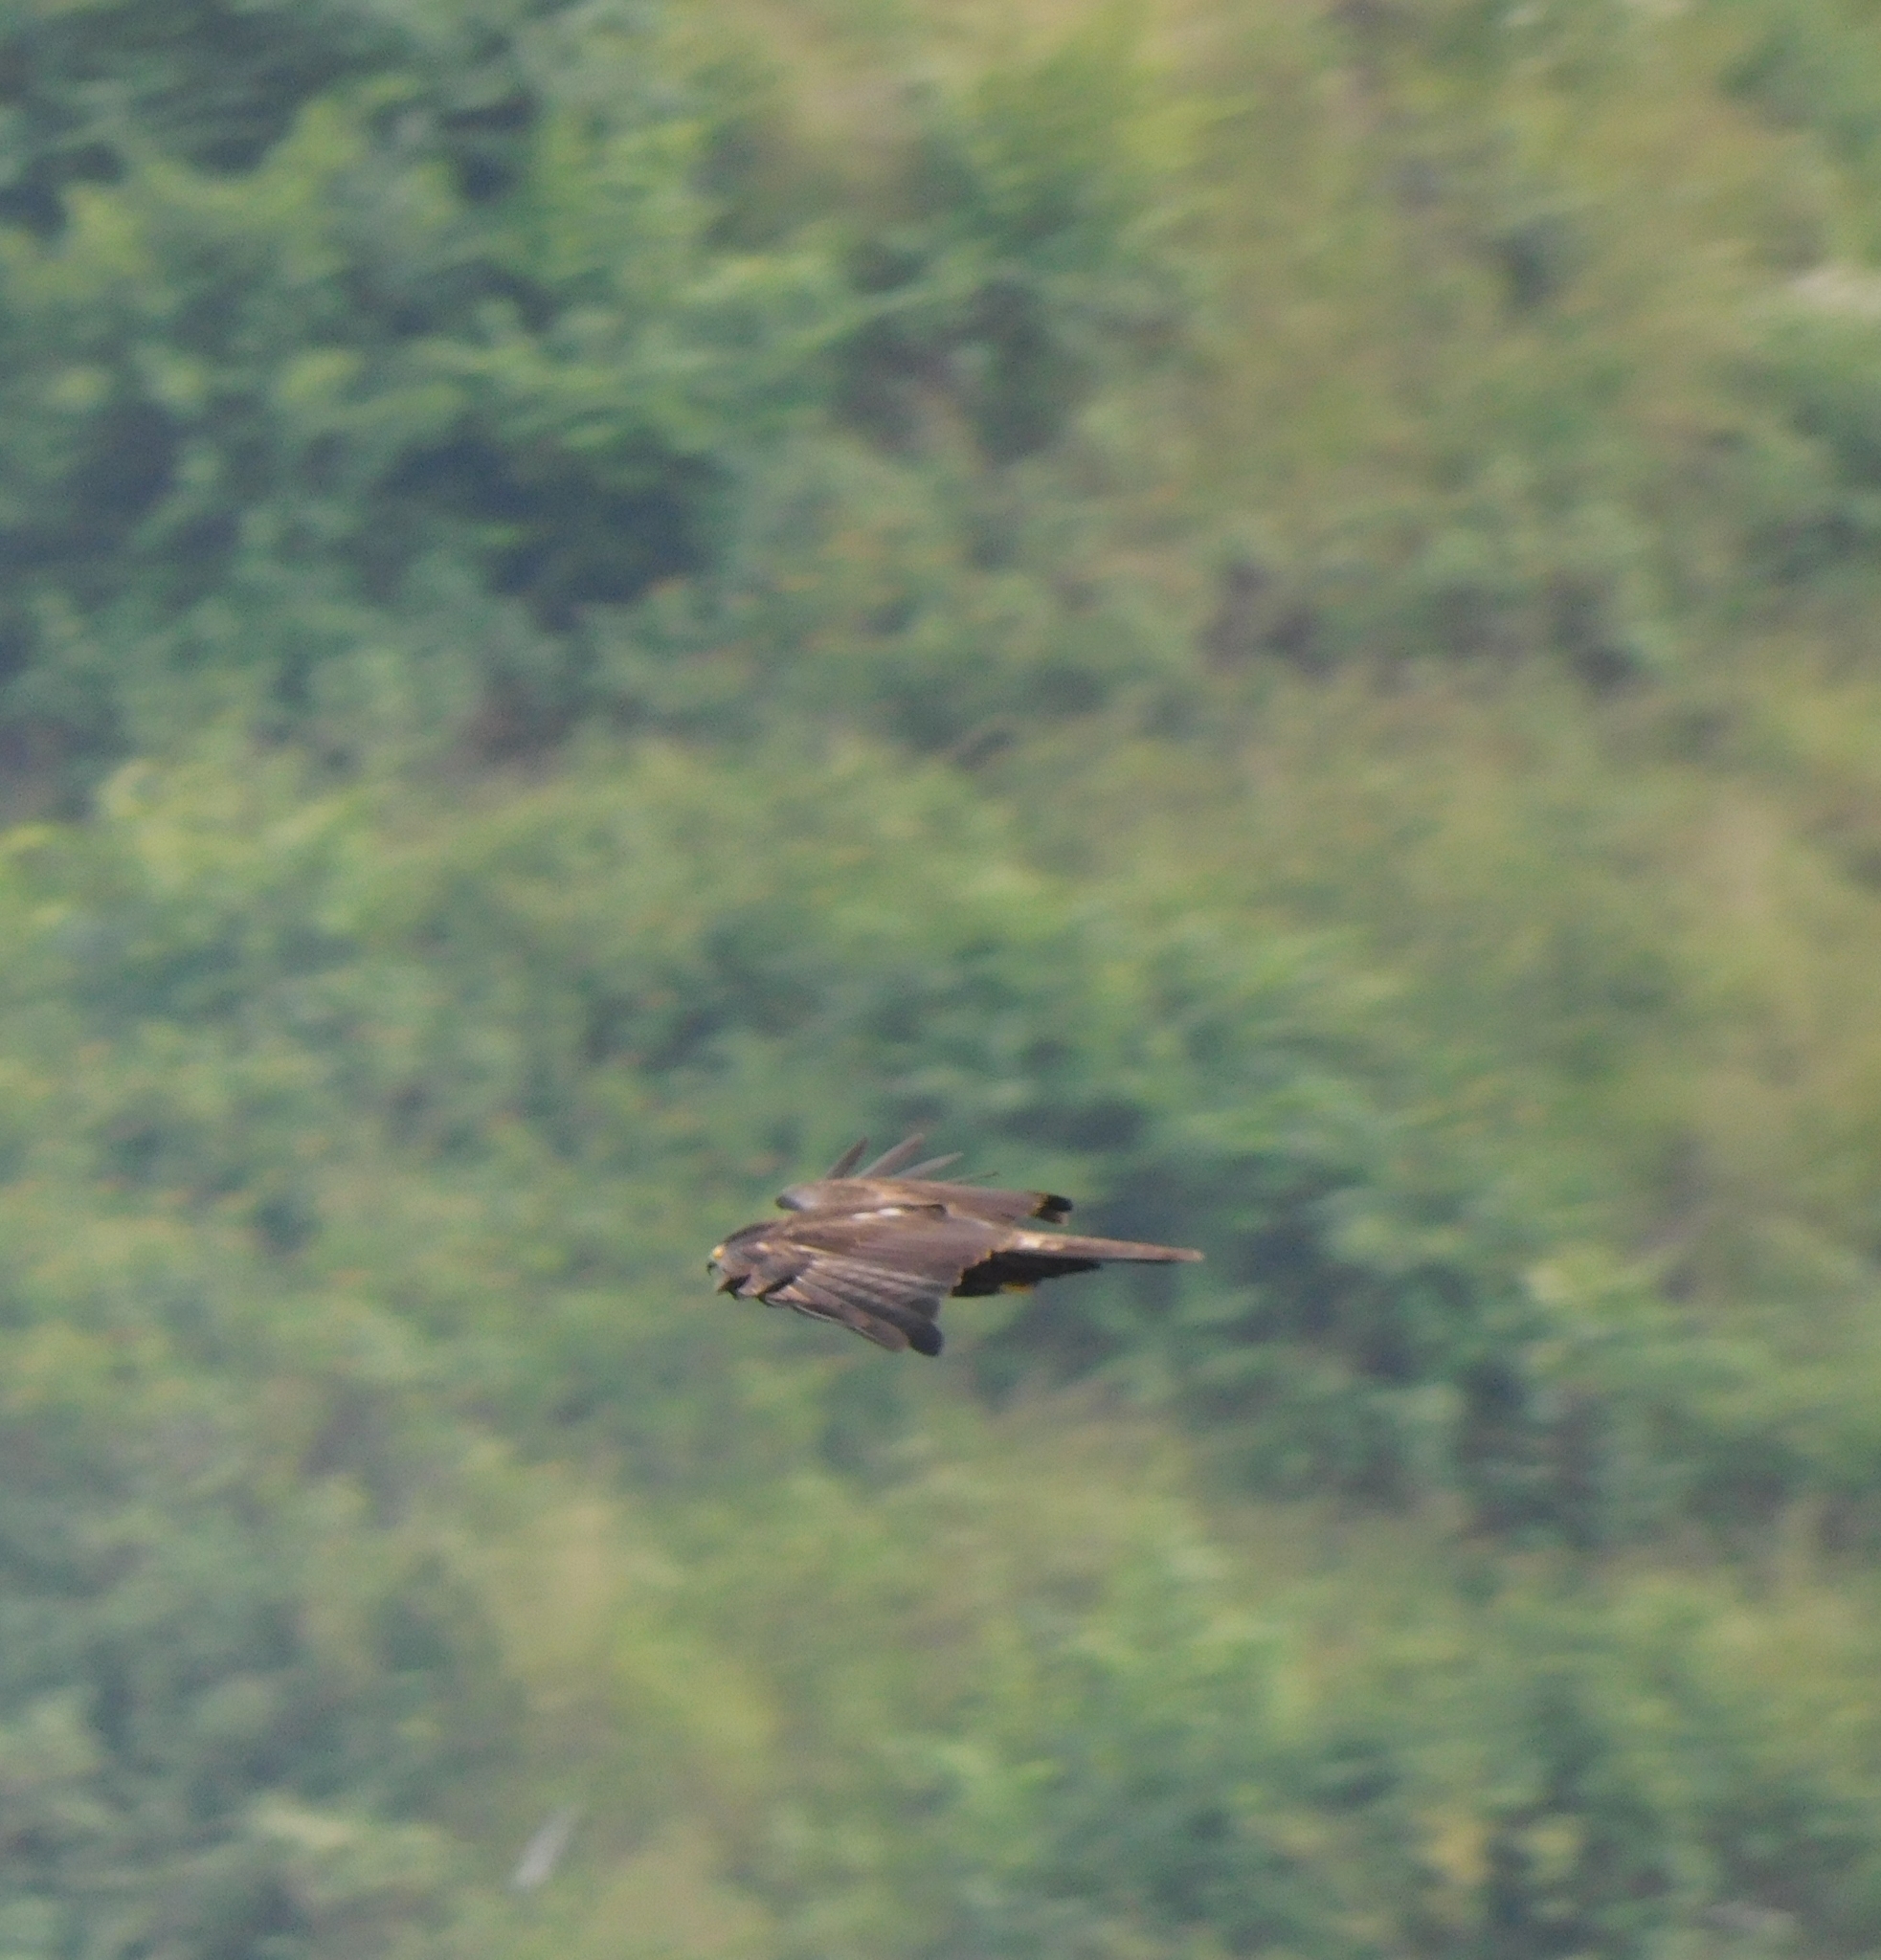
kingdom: Animalia
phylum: Chordata
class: Aves
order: Accipitriformes
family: Accipitridae
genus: Ictinaetus
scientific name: Ictinaetus malayensis
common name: Black eagle
